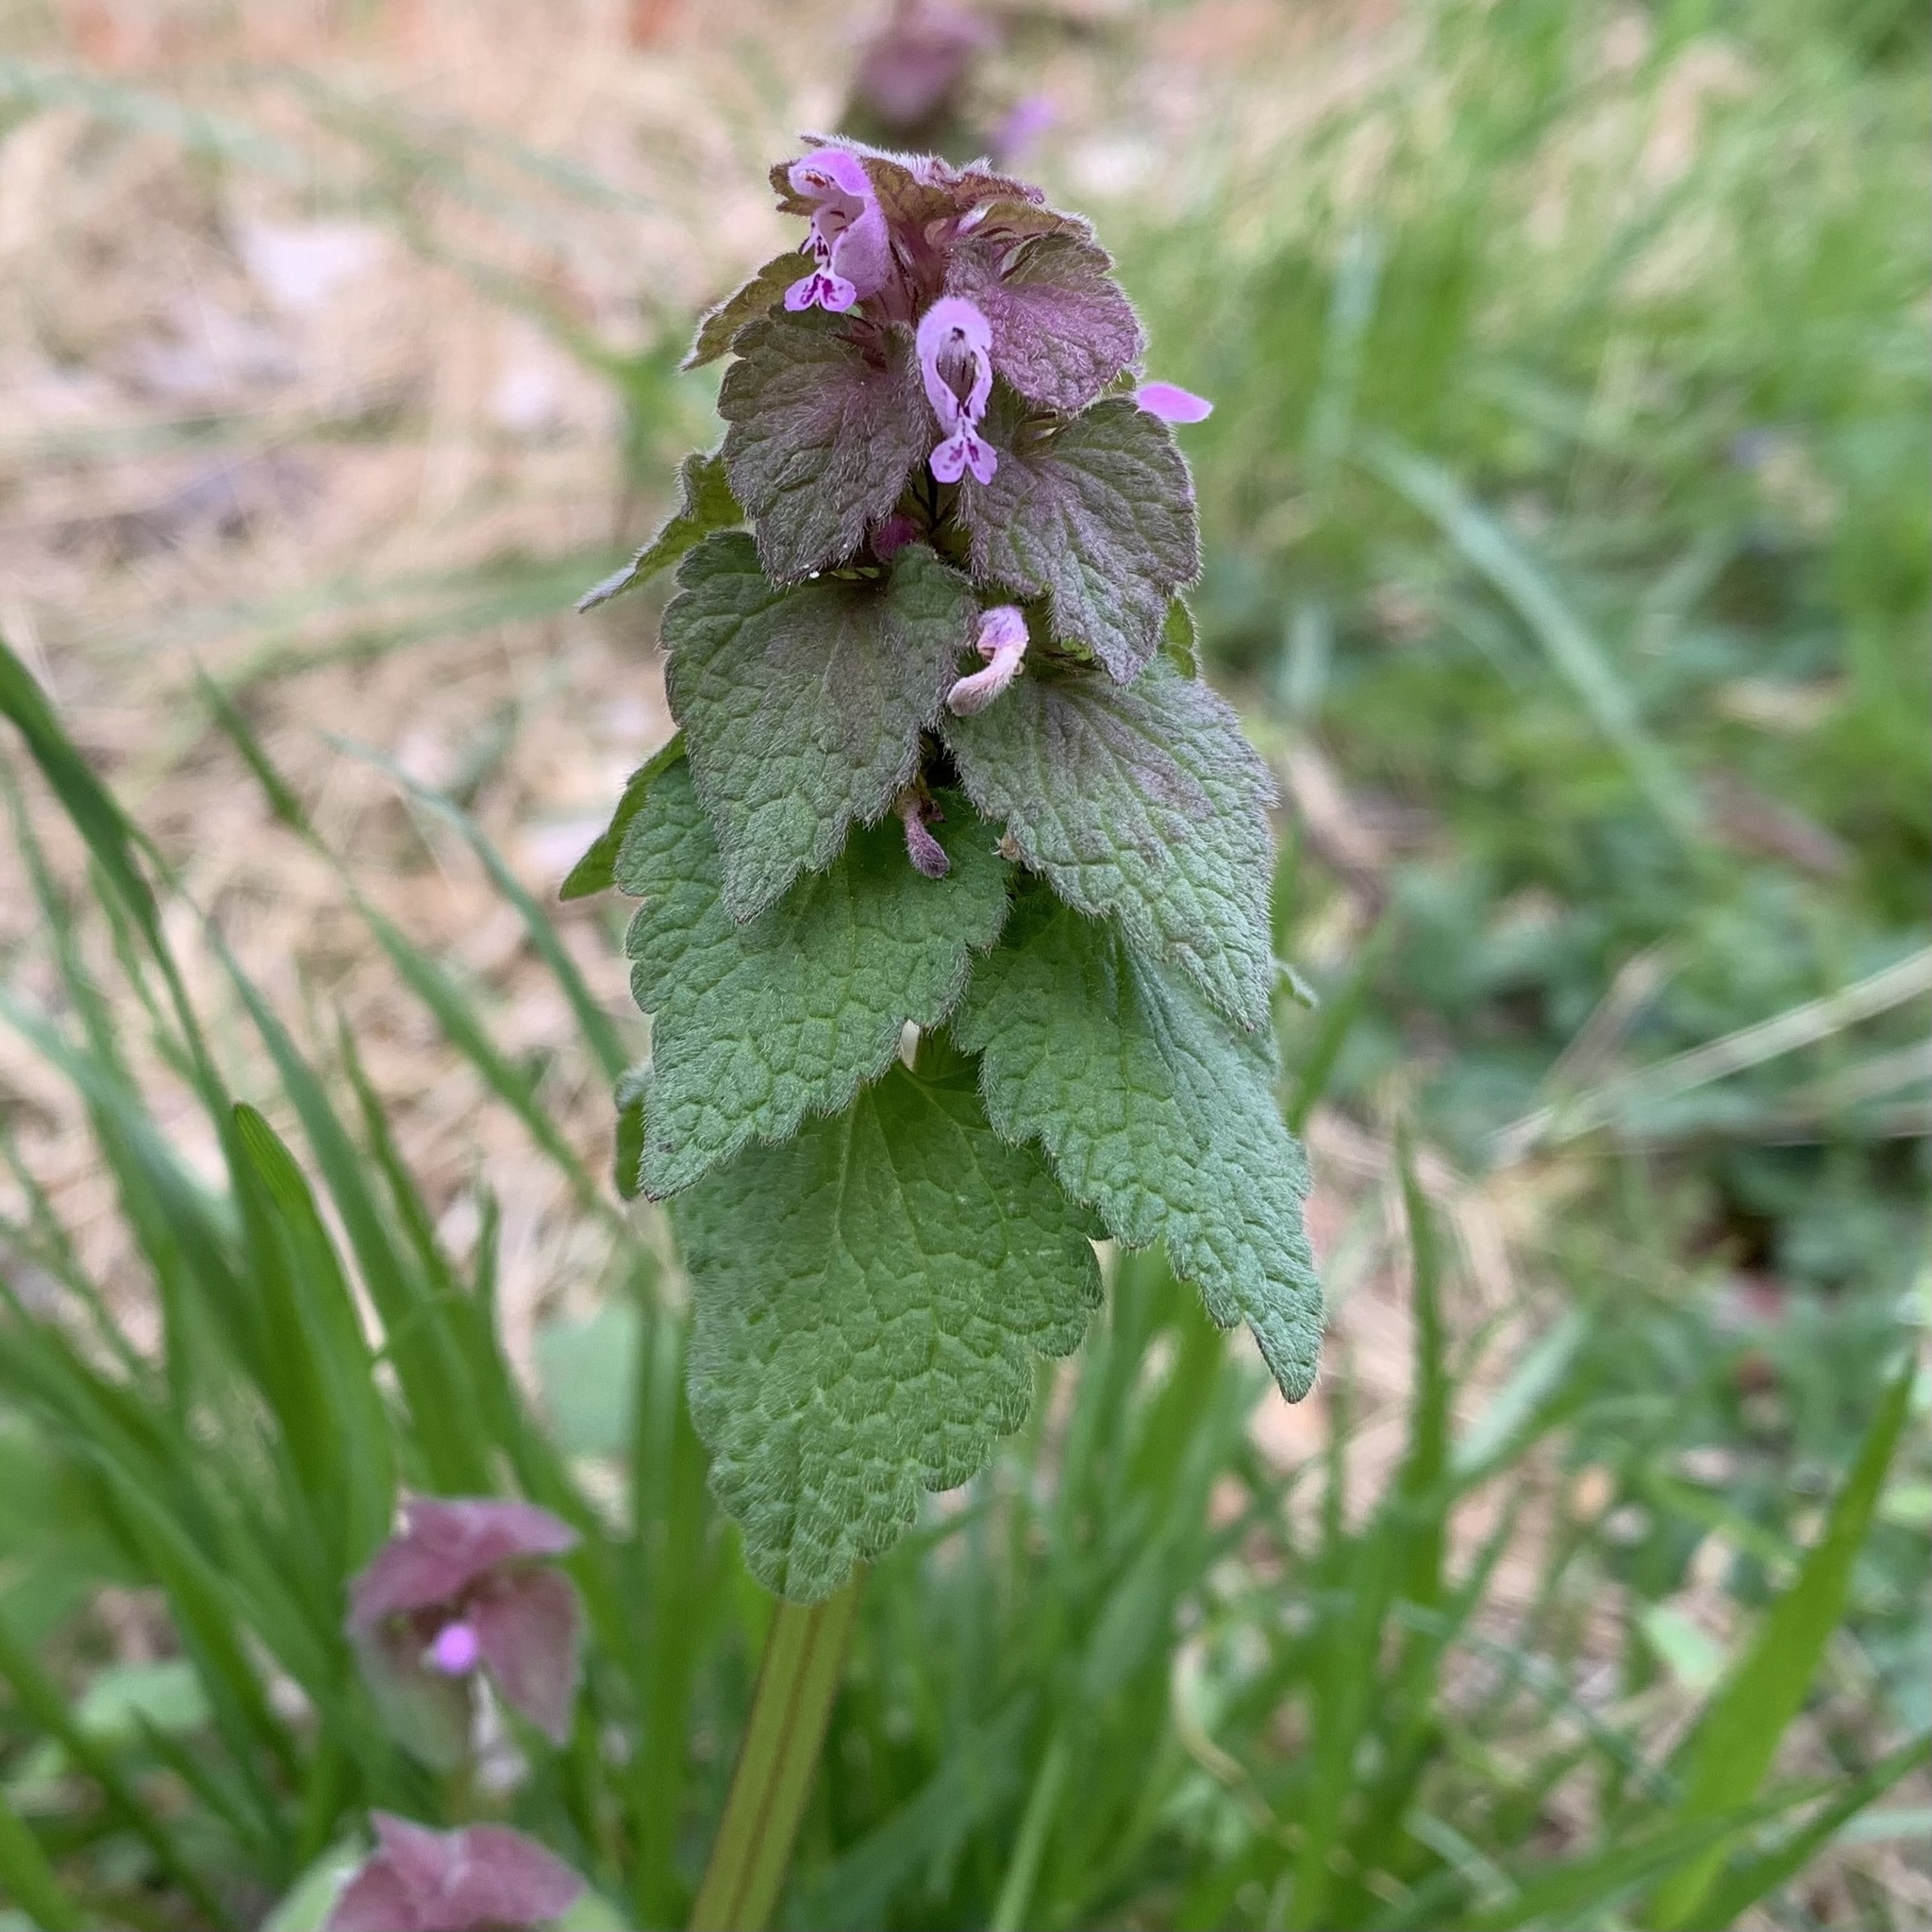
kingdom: Plantae
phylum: Tracheophyta
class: Magnoliopsida
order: Lamiales
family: Lamiaceae
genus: Lamium
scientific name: Lamium purpureum
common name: Red dead-nettle
